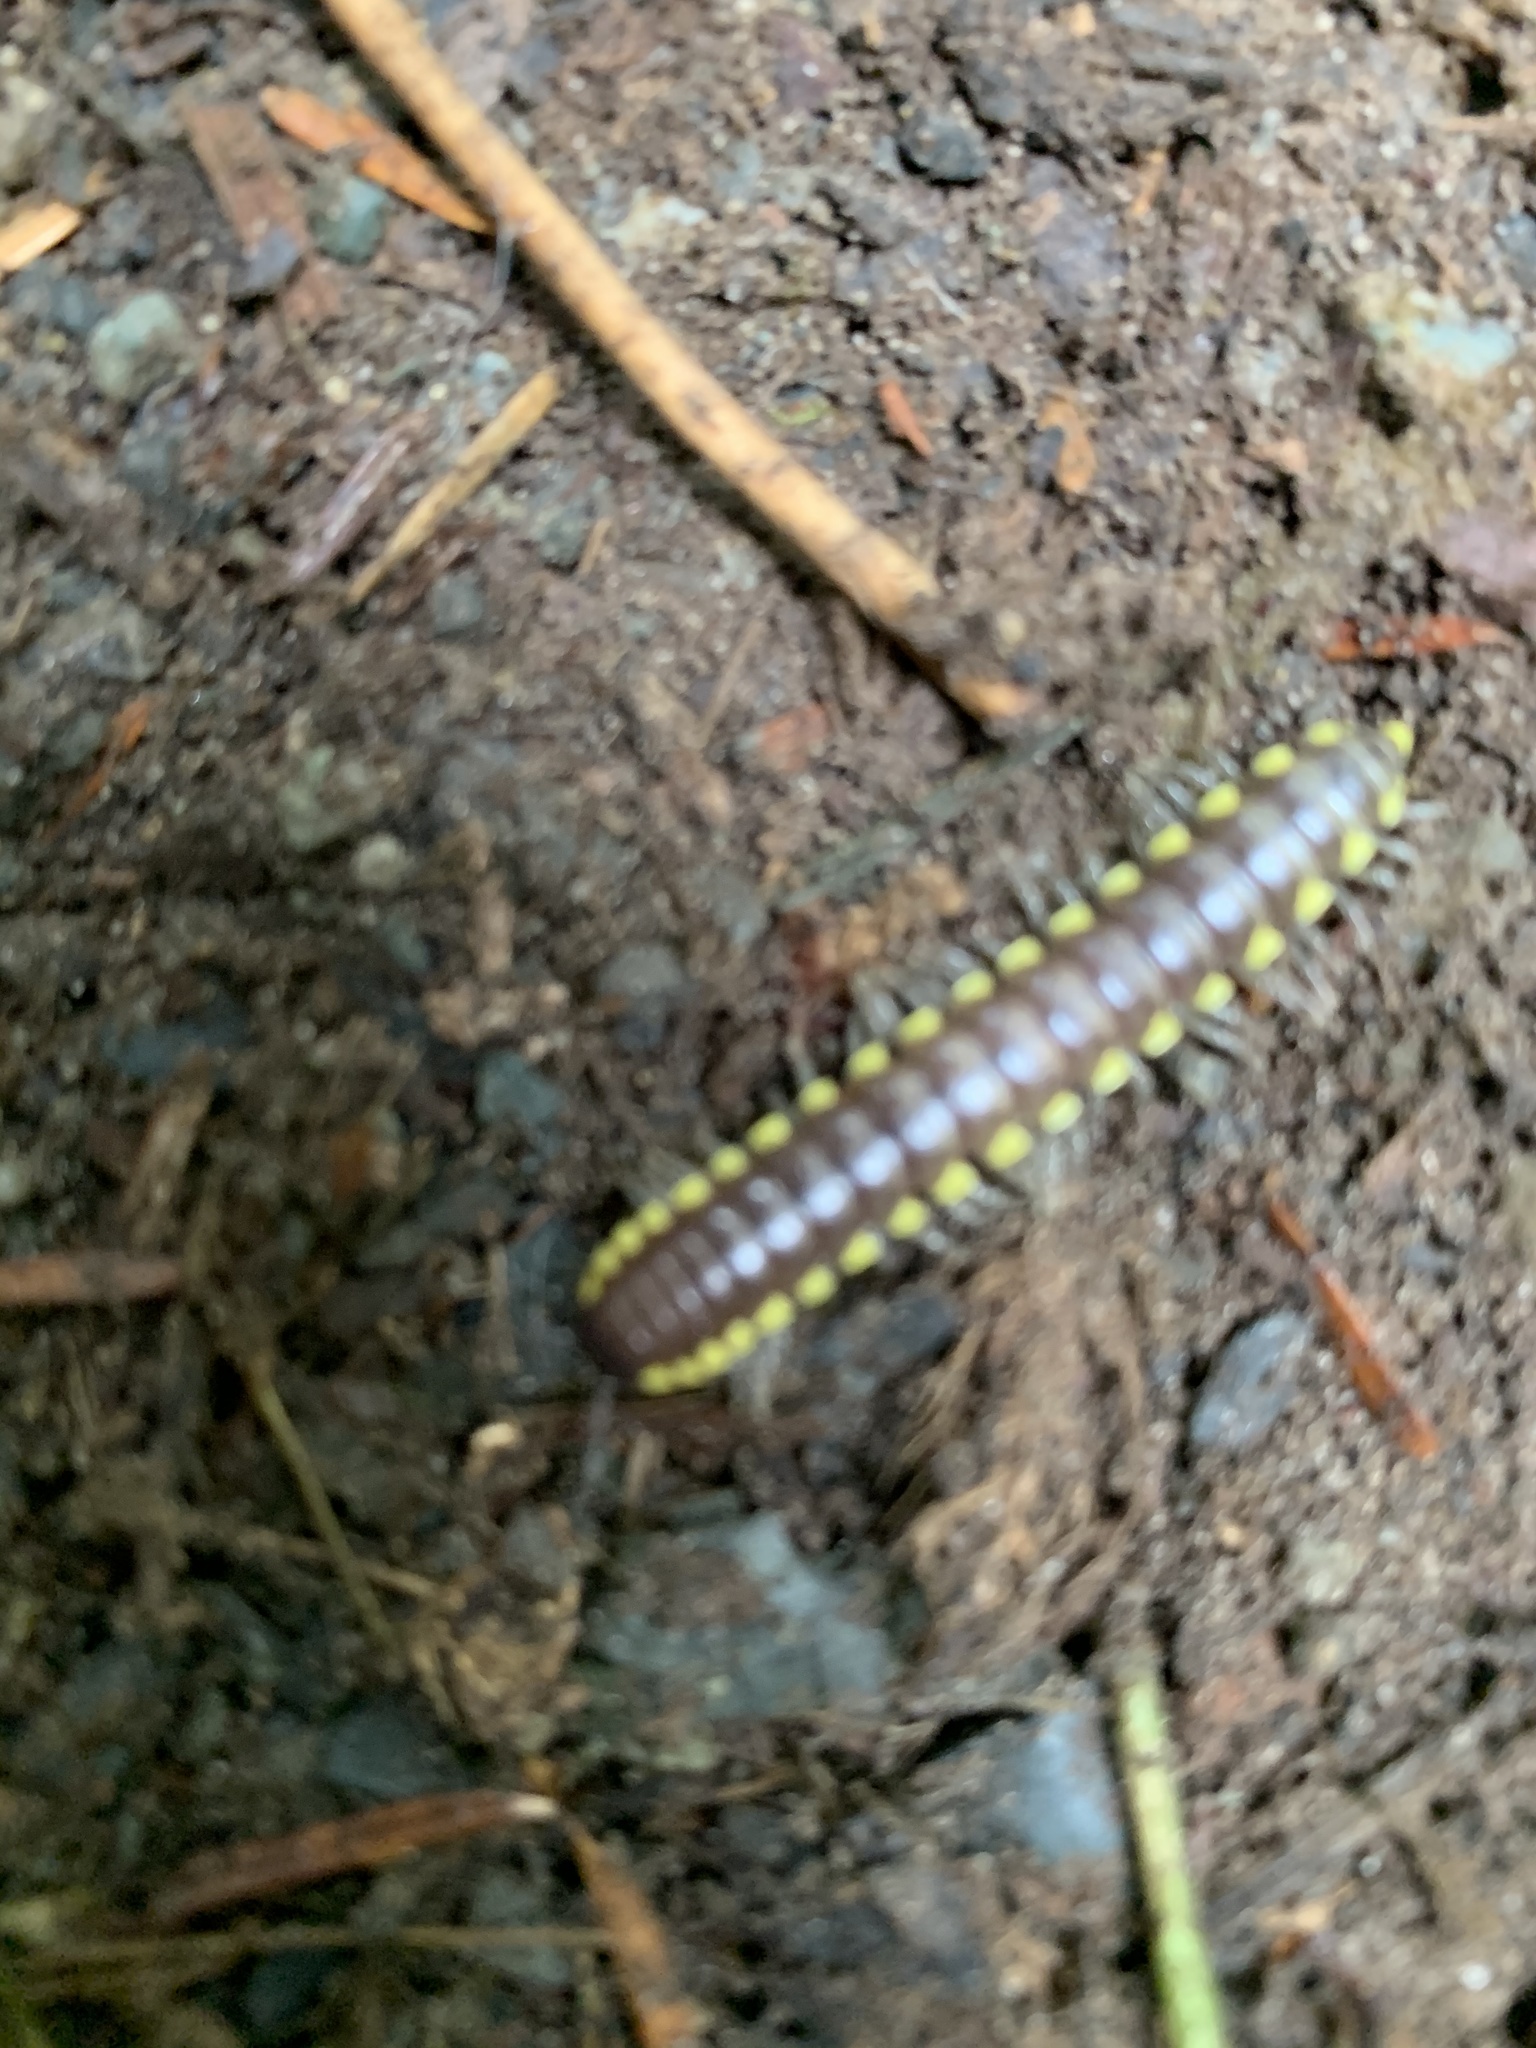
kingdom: Animalia
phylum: Arthropoda
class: Diplopoda
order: Polydesmida
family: Xystodesmidae
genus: Harpaphe
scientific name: Harpaphe haydeniana
